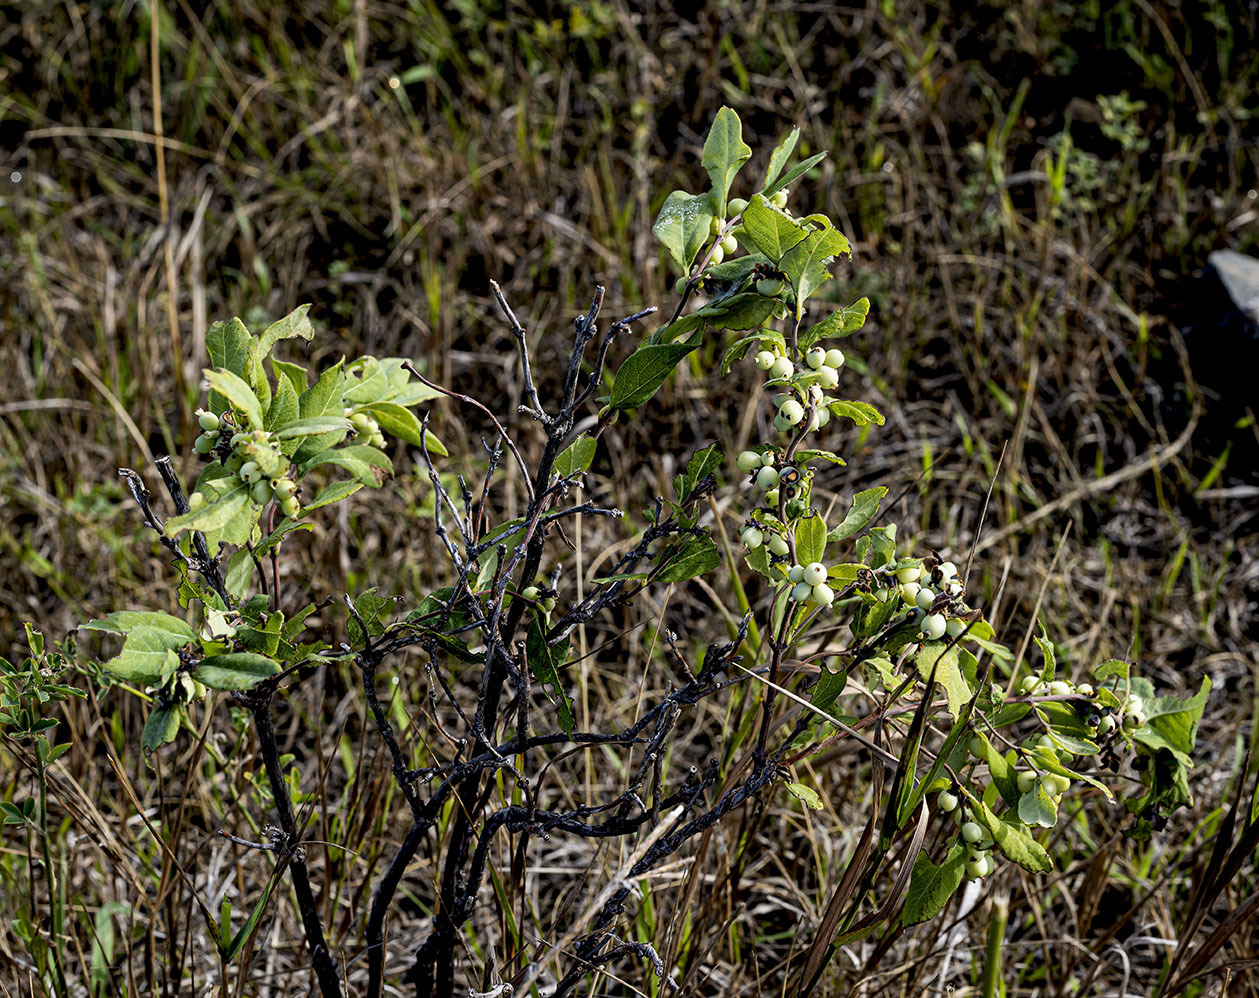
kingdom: Plantae
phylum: Tracheophyta
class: Magnoliopsida
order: Dipsacales
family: Caprifoliaceae
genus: Symphoricarpos
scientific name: Symphoricarpos occidentalis
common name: Wolfberry
